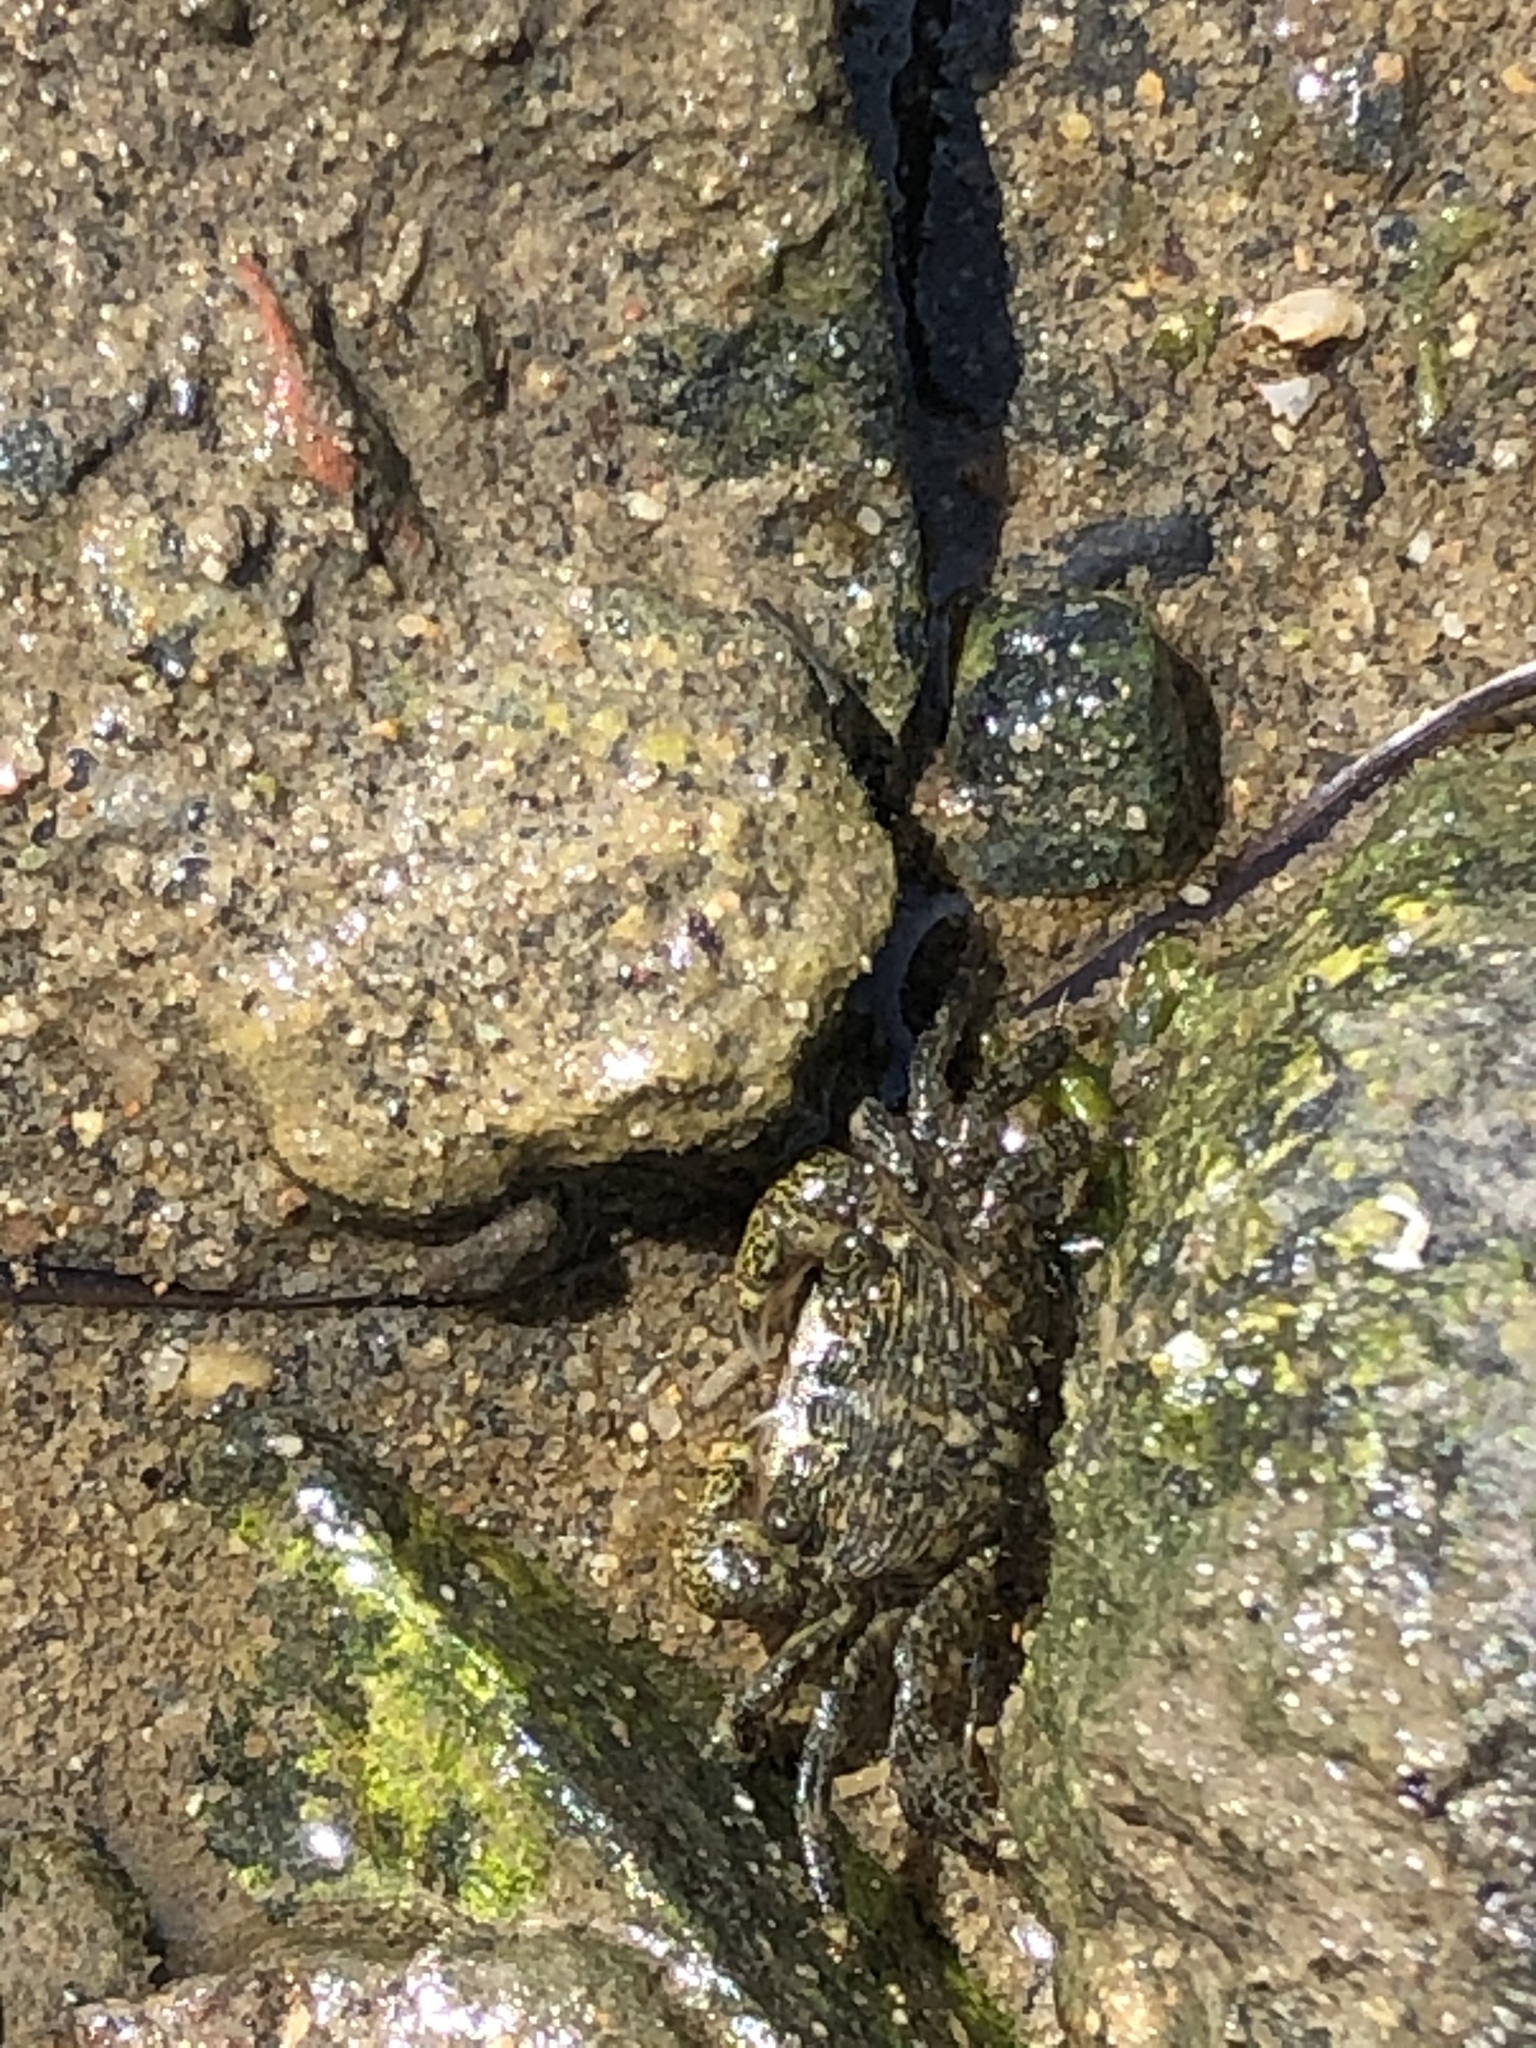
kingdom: Animalia
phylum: Arthropoda
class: Malacostraca
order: Decapoda
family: Grapsidae
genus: Pachygrapsus
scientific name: Pachygrapsus crassipes
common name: Striped shore crab
